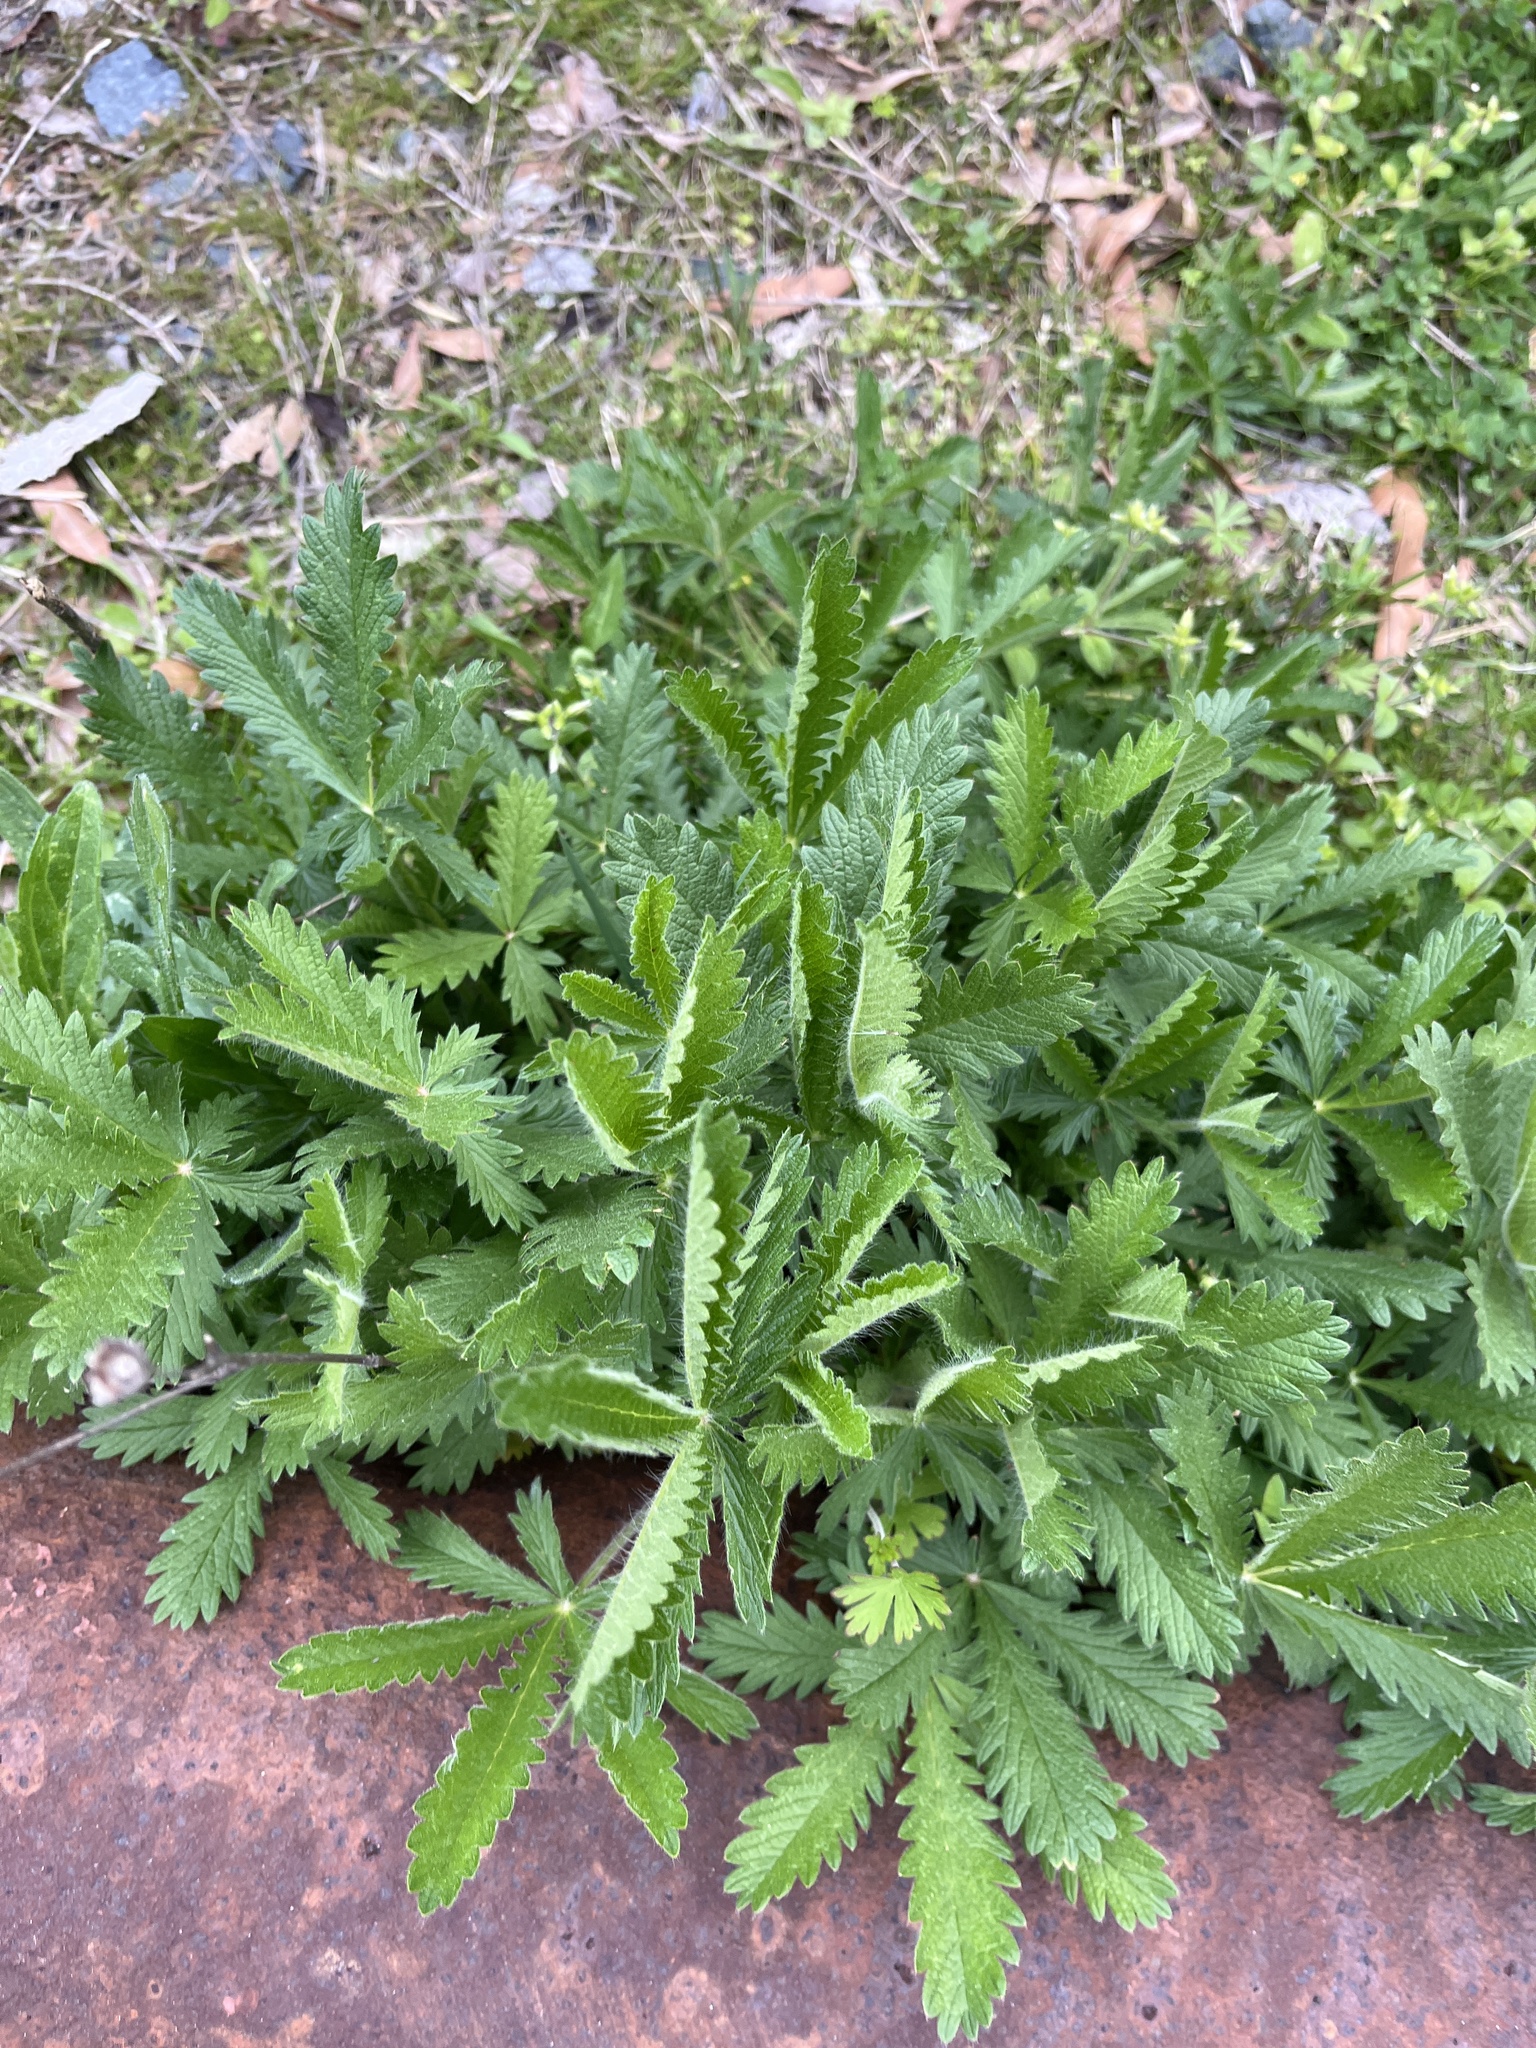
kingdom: Plantae
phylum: Tracheophyta
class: Magnoliopsida
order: Rosales
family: Rosaceae
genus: Potentilla
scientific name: Potentilla recta
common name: Sulphur cinquefoil
